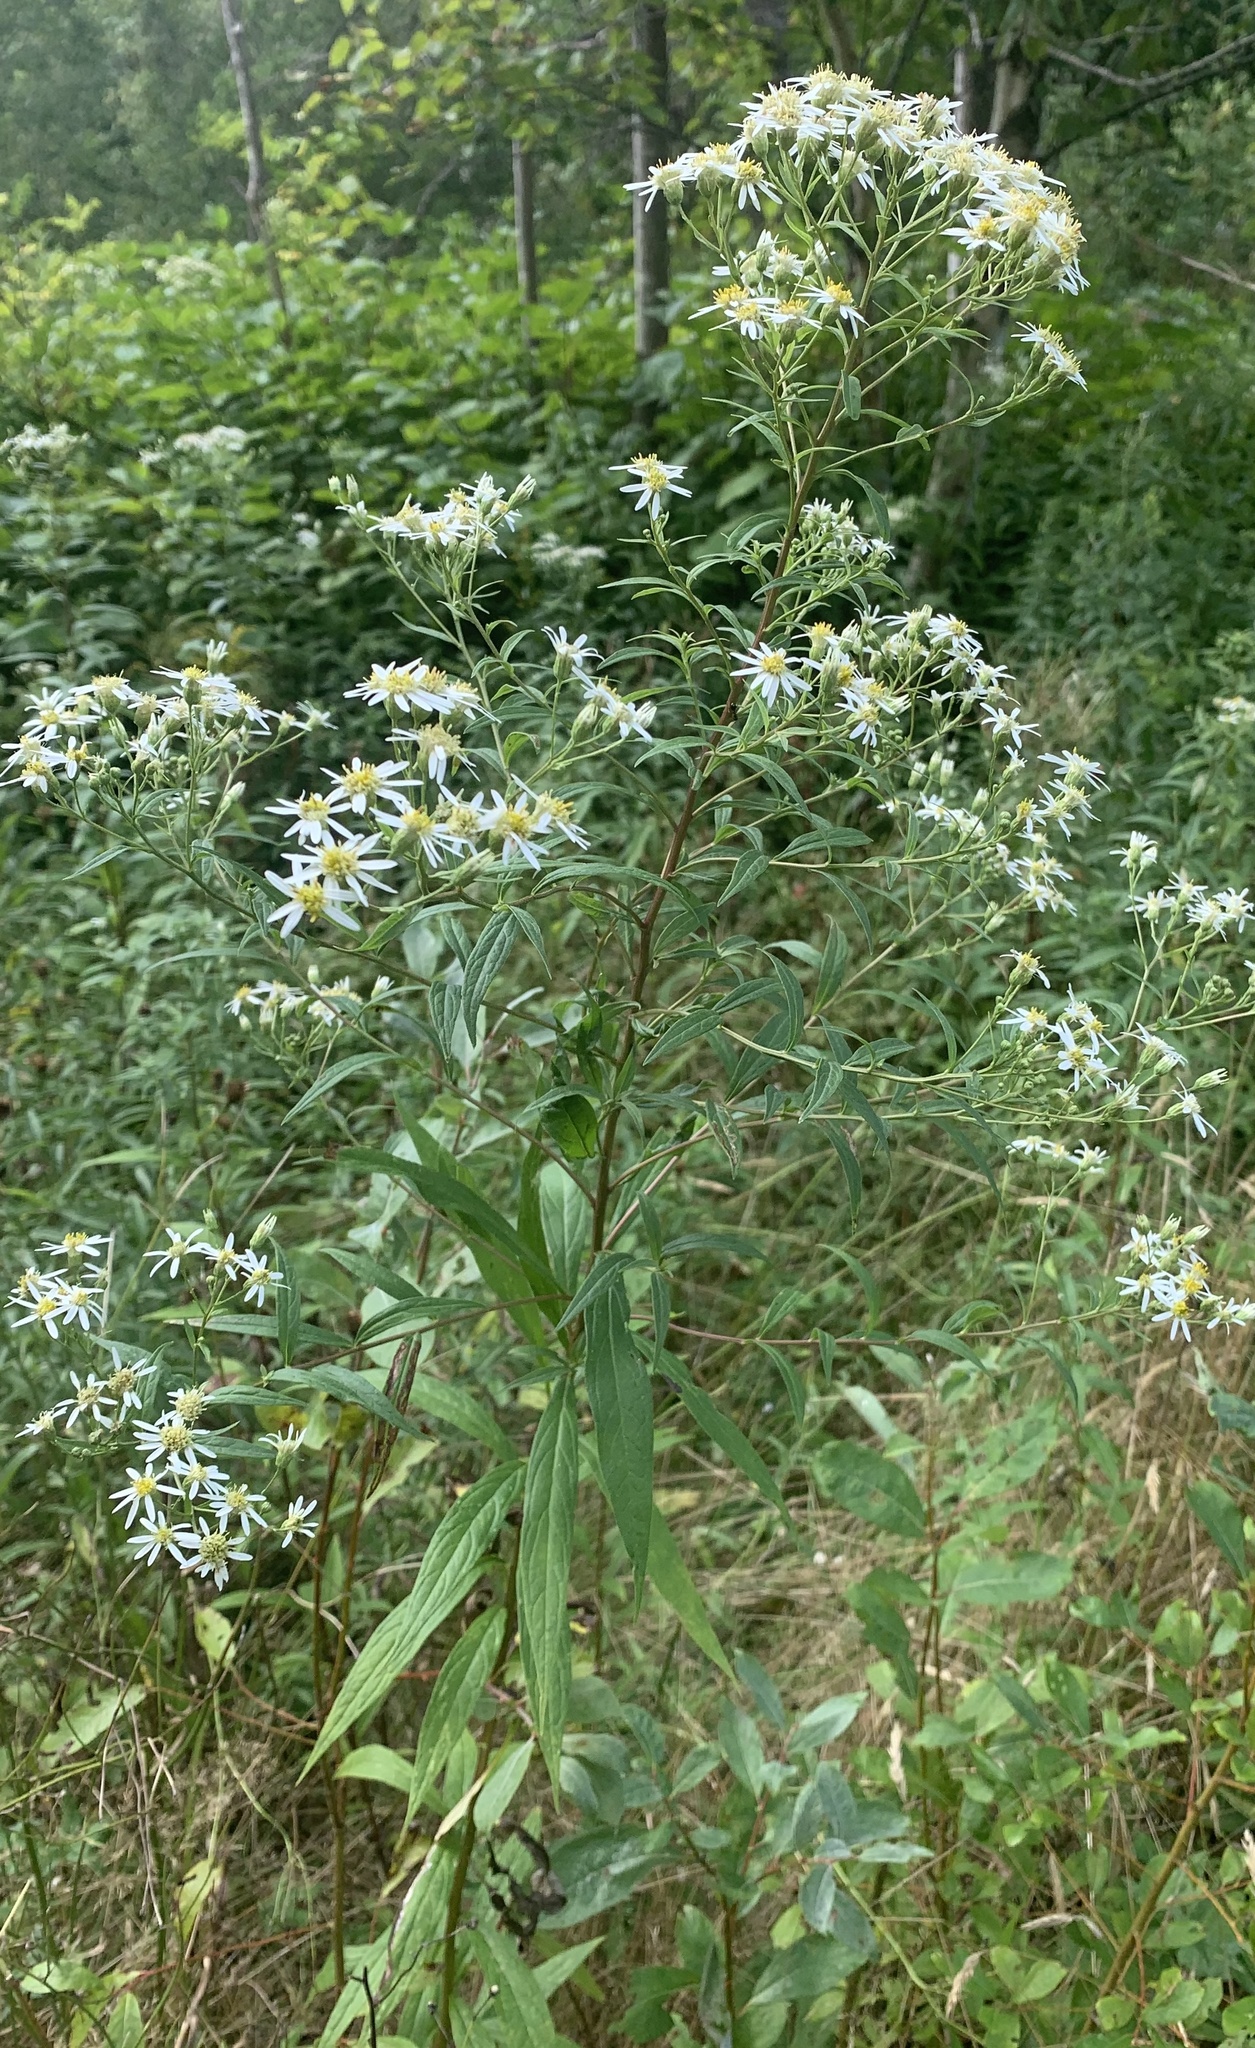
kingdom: Plantae
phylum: Tracheophyta
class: Magnoliopsida
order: Asterales
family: Asteraceae
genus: Doellingeria
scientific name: Doellingeria umbellata
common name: Flat-top white aster
